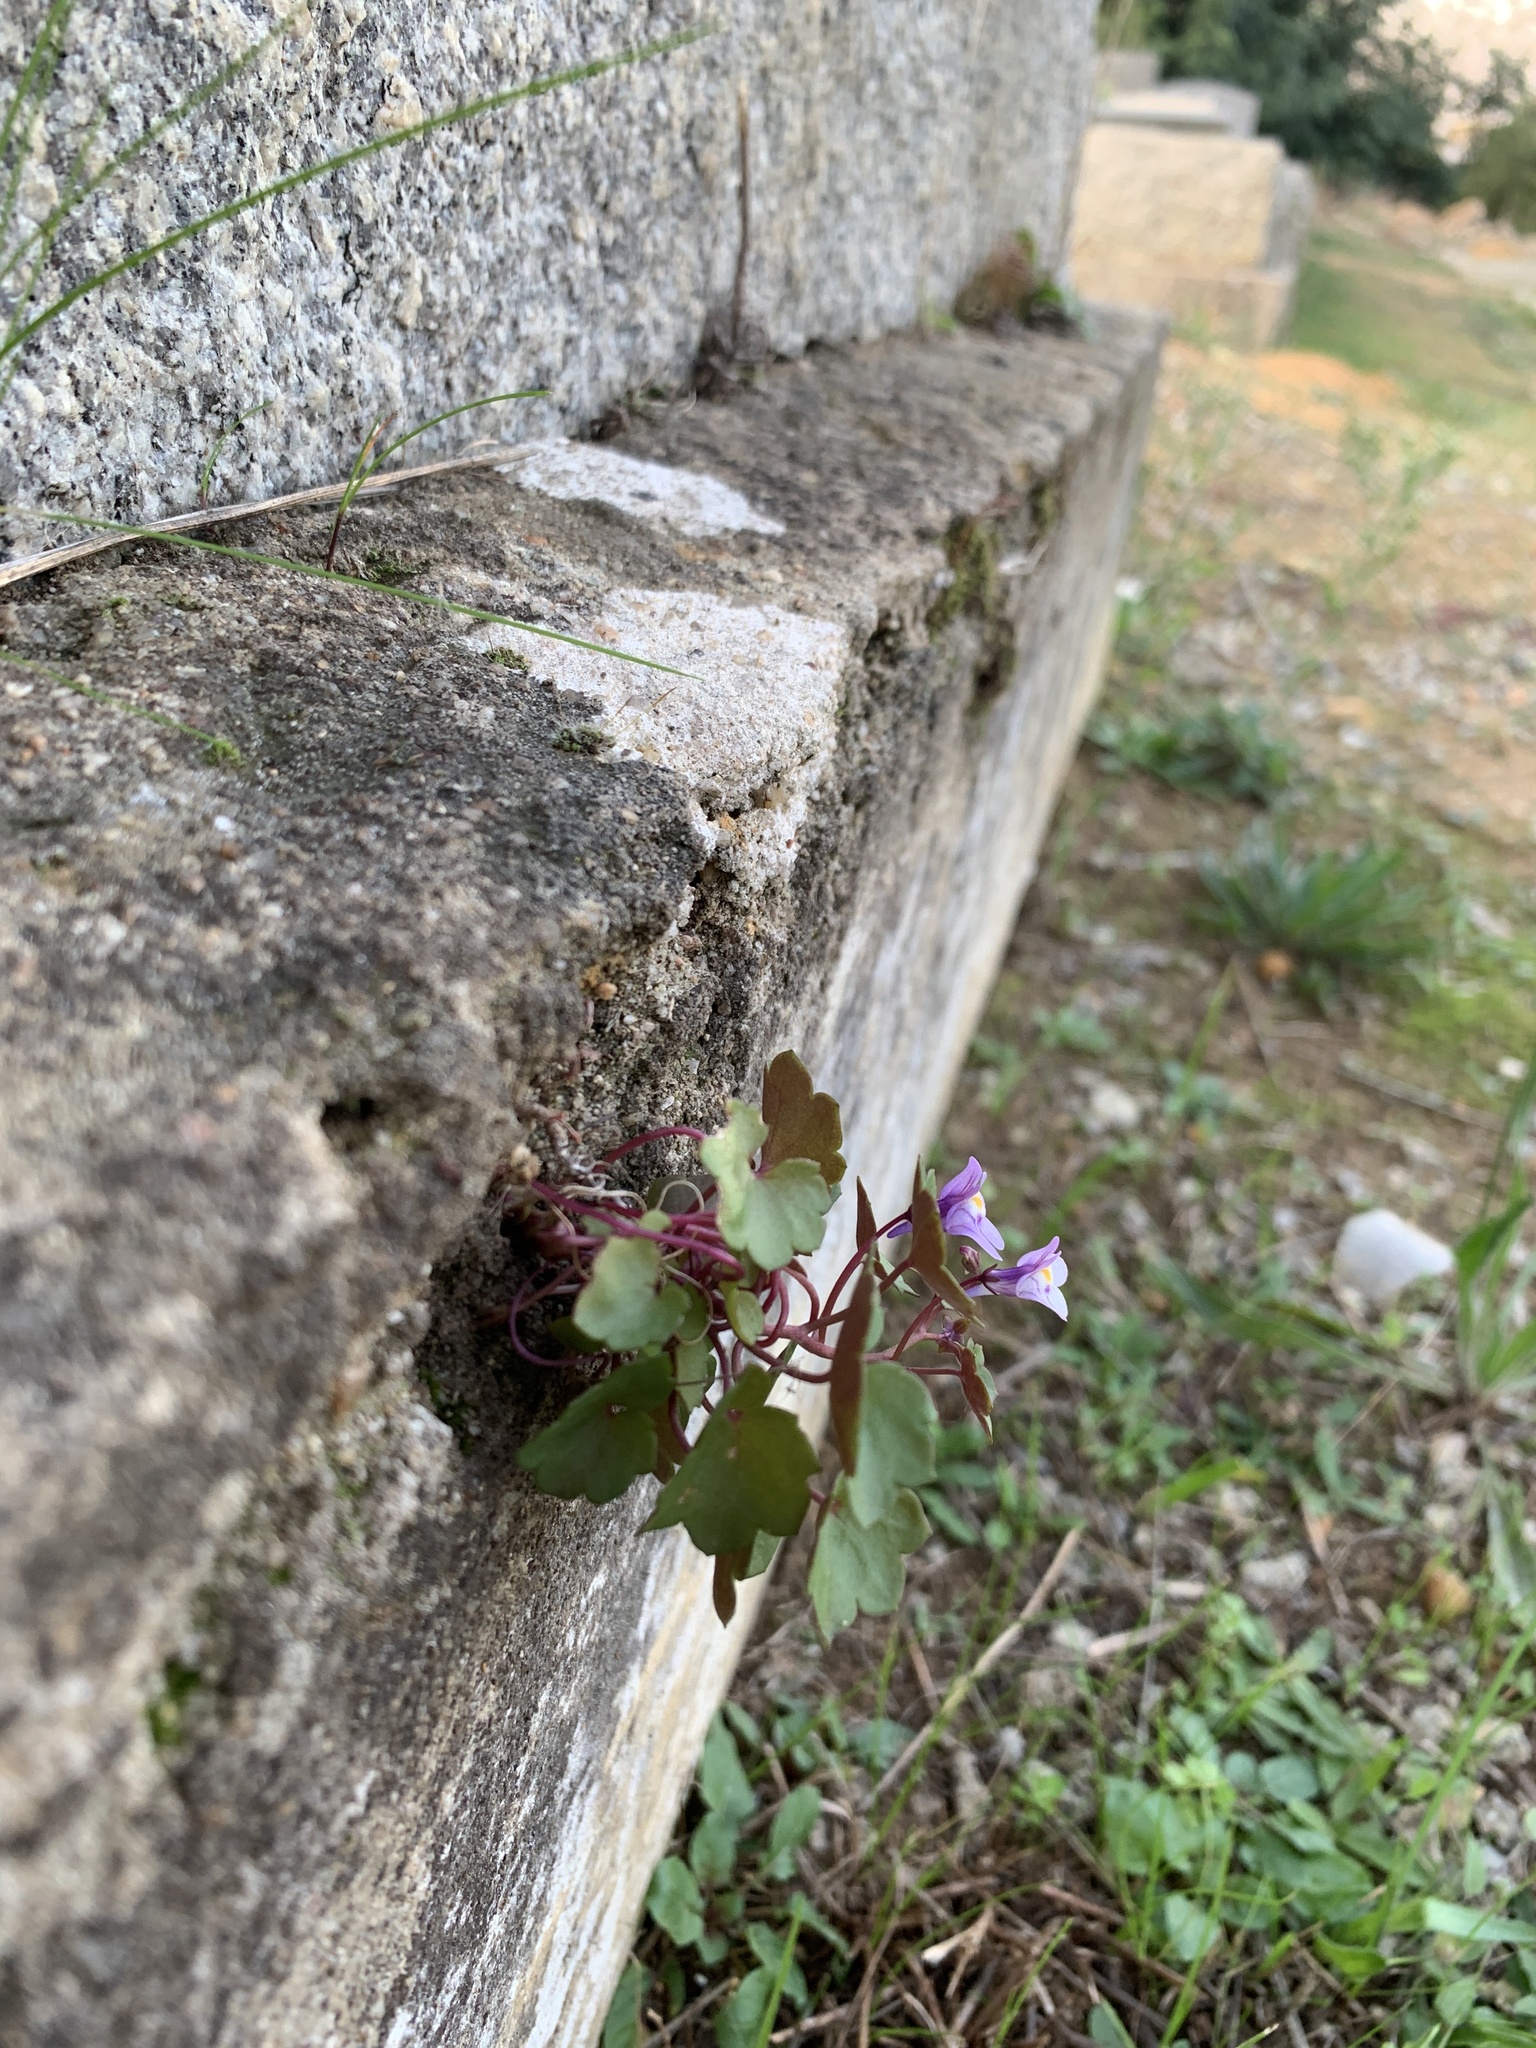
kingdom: Plantae
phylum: Tracheophyta
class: Magnoliopsida
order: Lamiales
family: Plantaginaceae
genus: Cymbalaria
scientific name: Cymbalaria muralis
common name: Ivy-leaved toadflax
